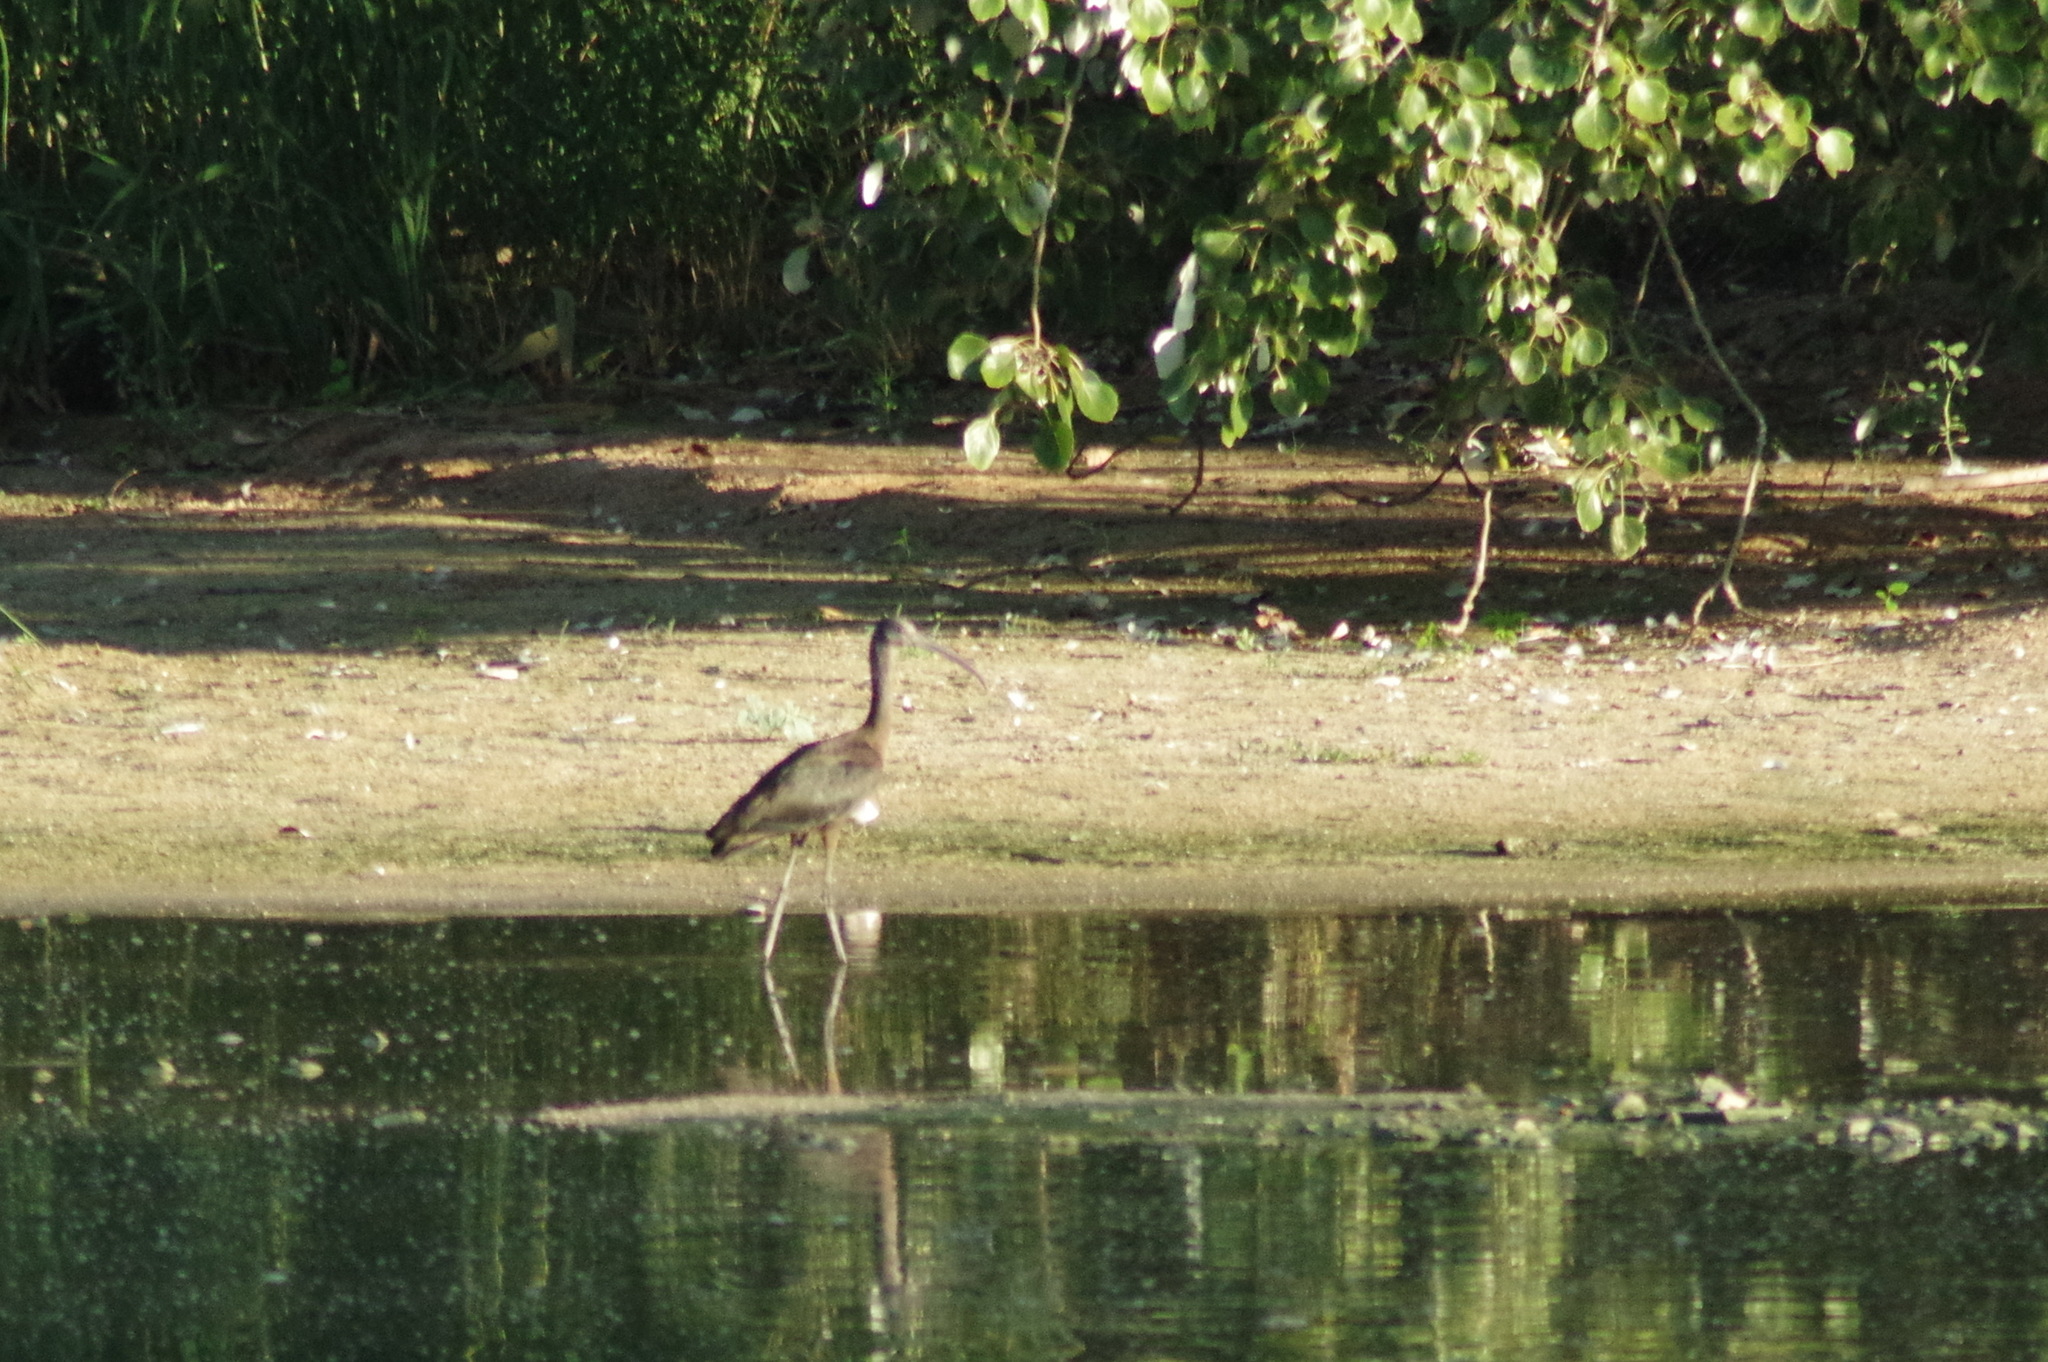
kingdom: Animalia
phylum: Chordata
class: Aves
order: Pelecaniformes
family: Threskiornithidae
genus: Plegadis
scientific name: Plegadis falcinellus
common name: Glossy ibis
